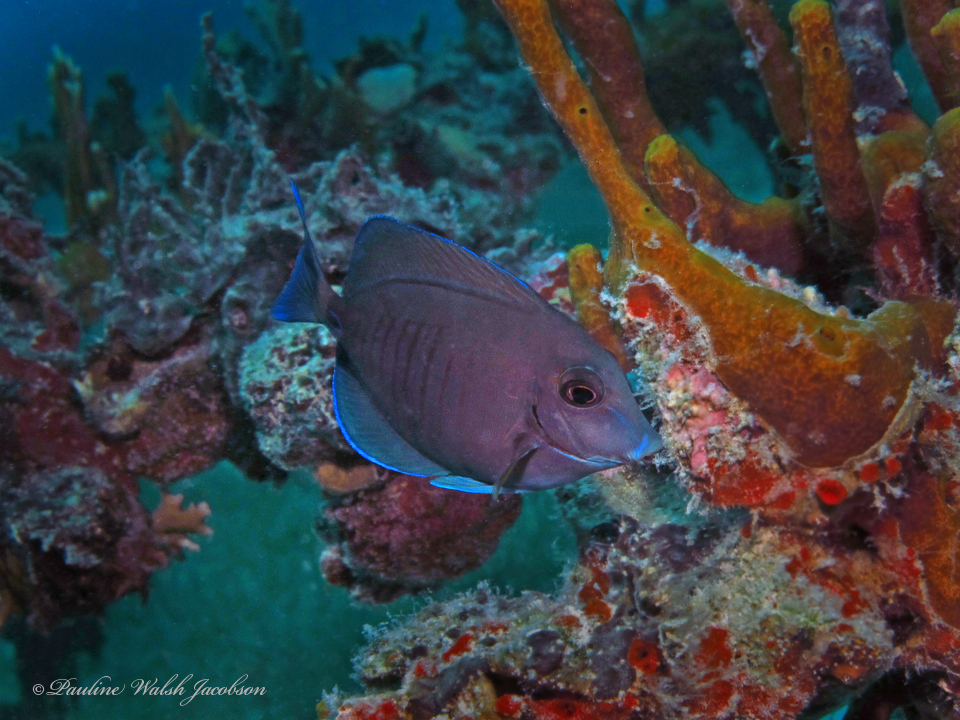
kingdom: Animalia
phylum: Chordata
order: Perciformes
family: Acanthuridae
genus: Acanthurus
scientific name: Acanthurus chirurgus
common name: Doctorfish
